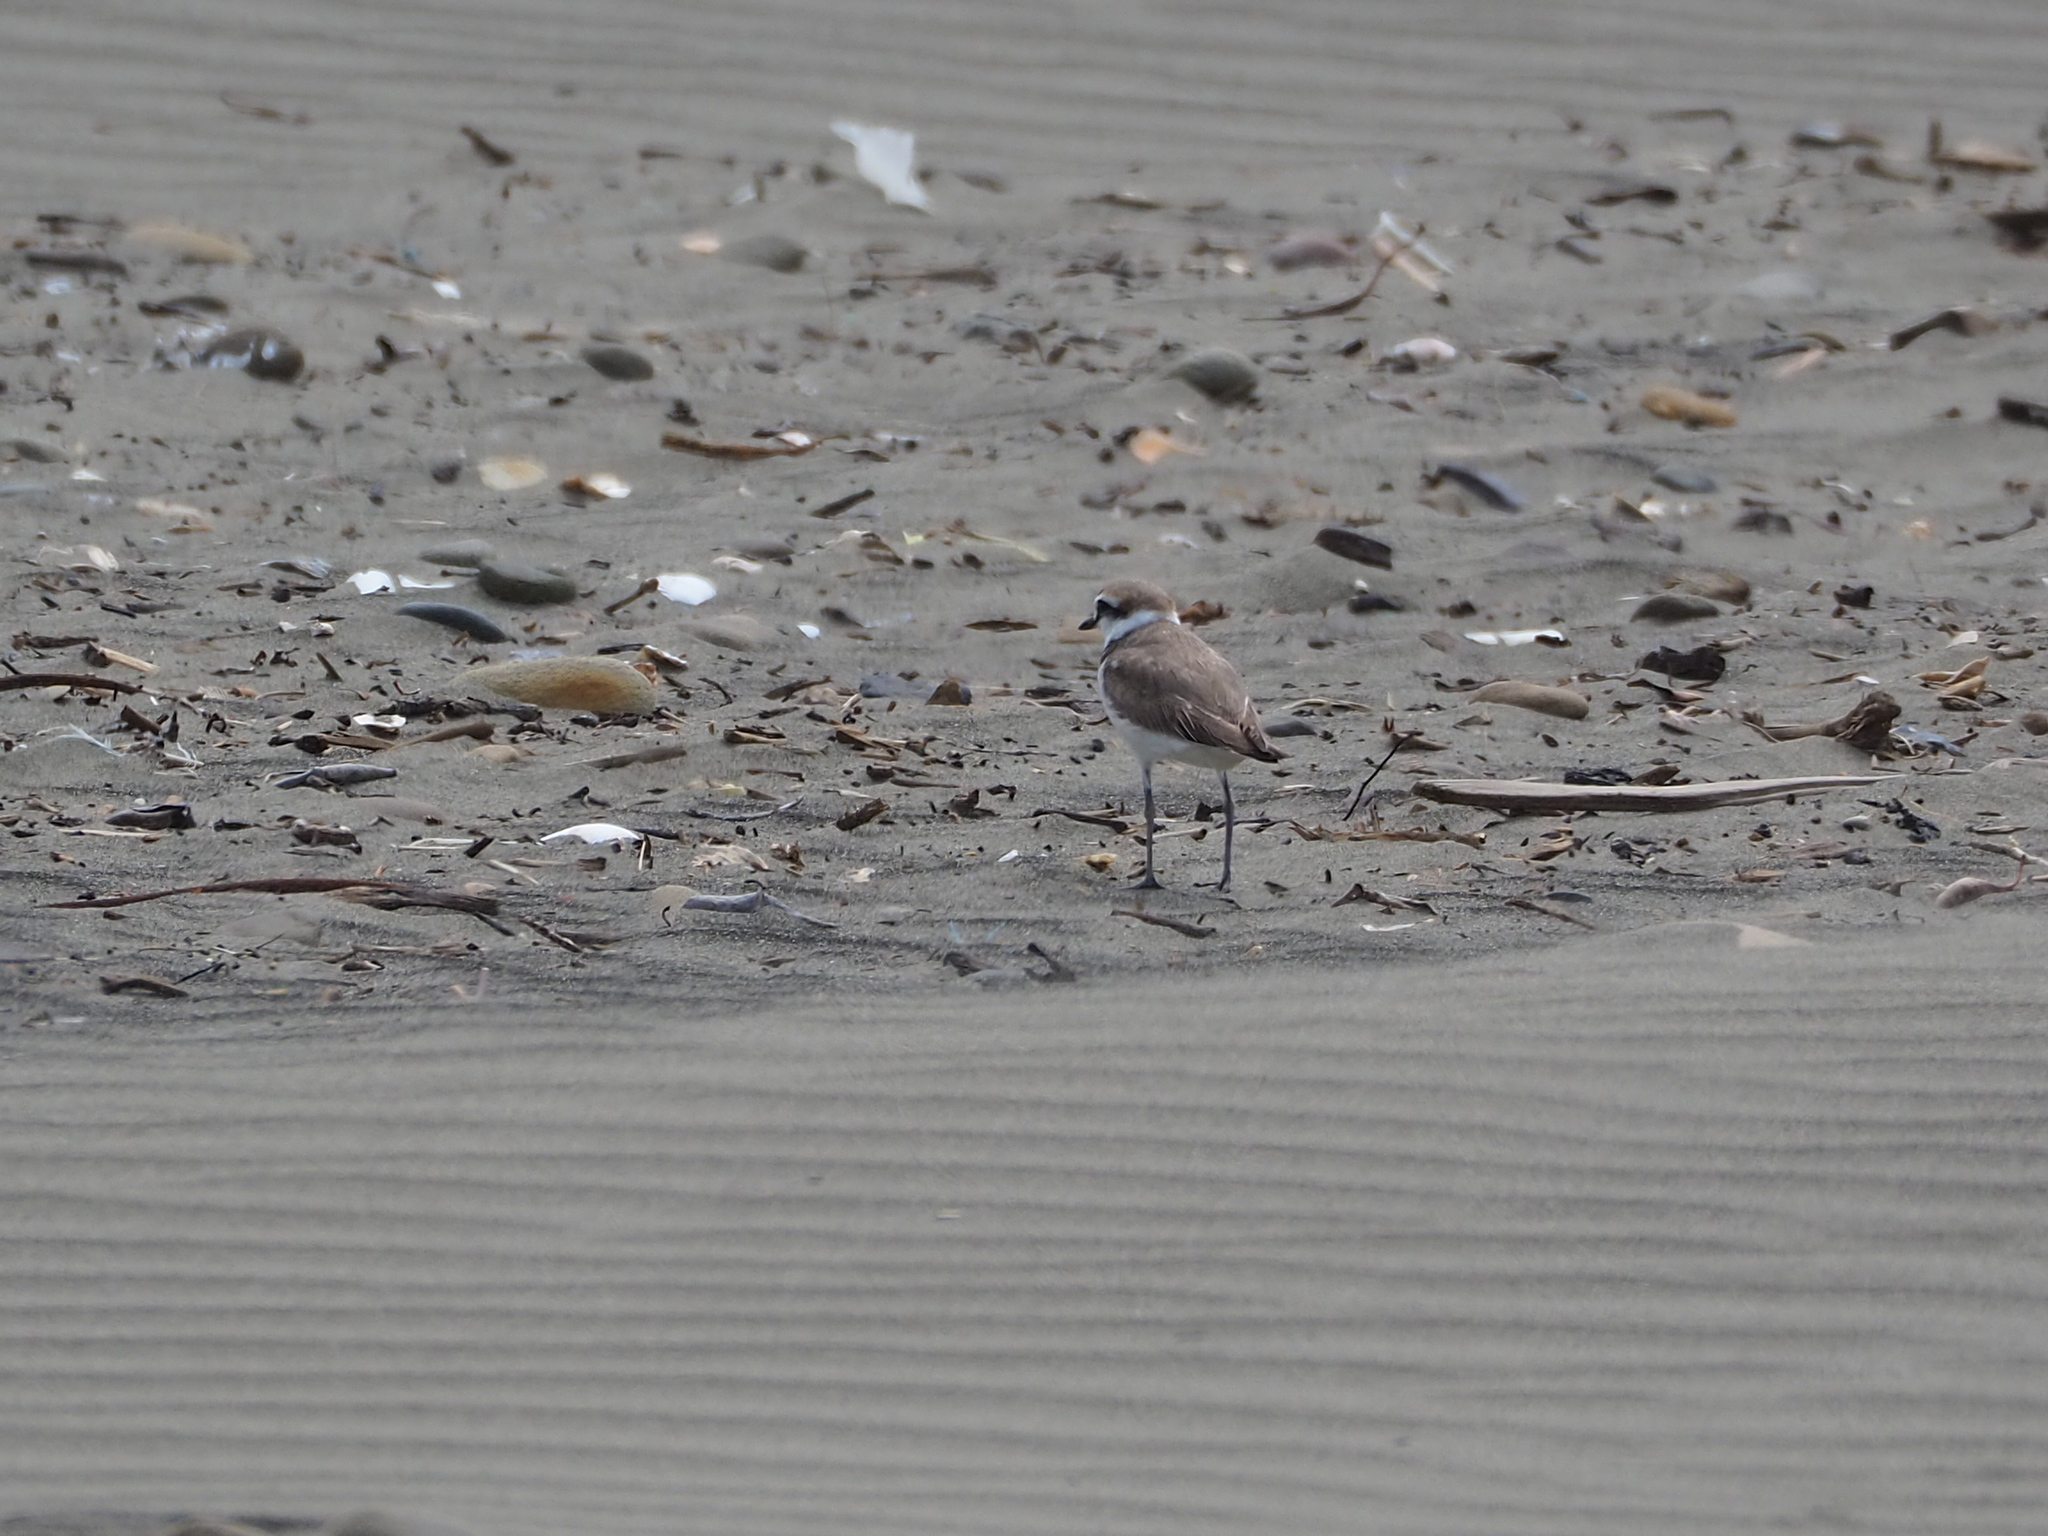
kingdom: Animalia
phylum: Chordata
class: Aves
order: Charadriiformes
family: Charadriidae
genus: Charadrius
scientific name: Charadrius alexandrinus
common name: Kentish plover
